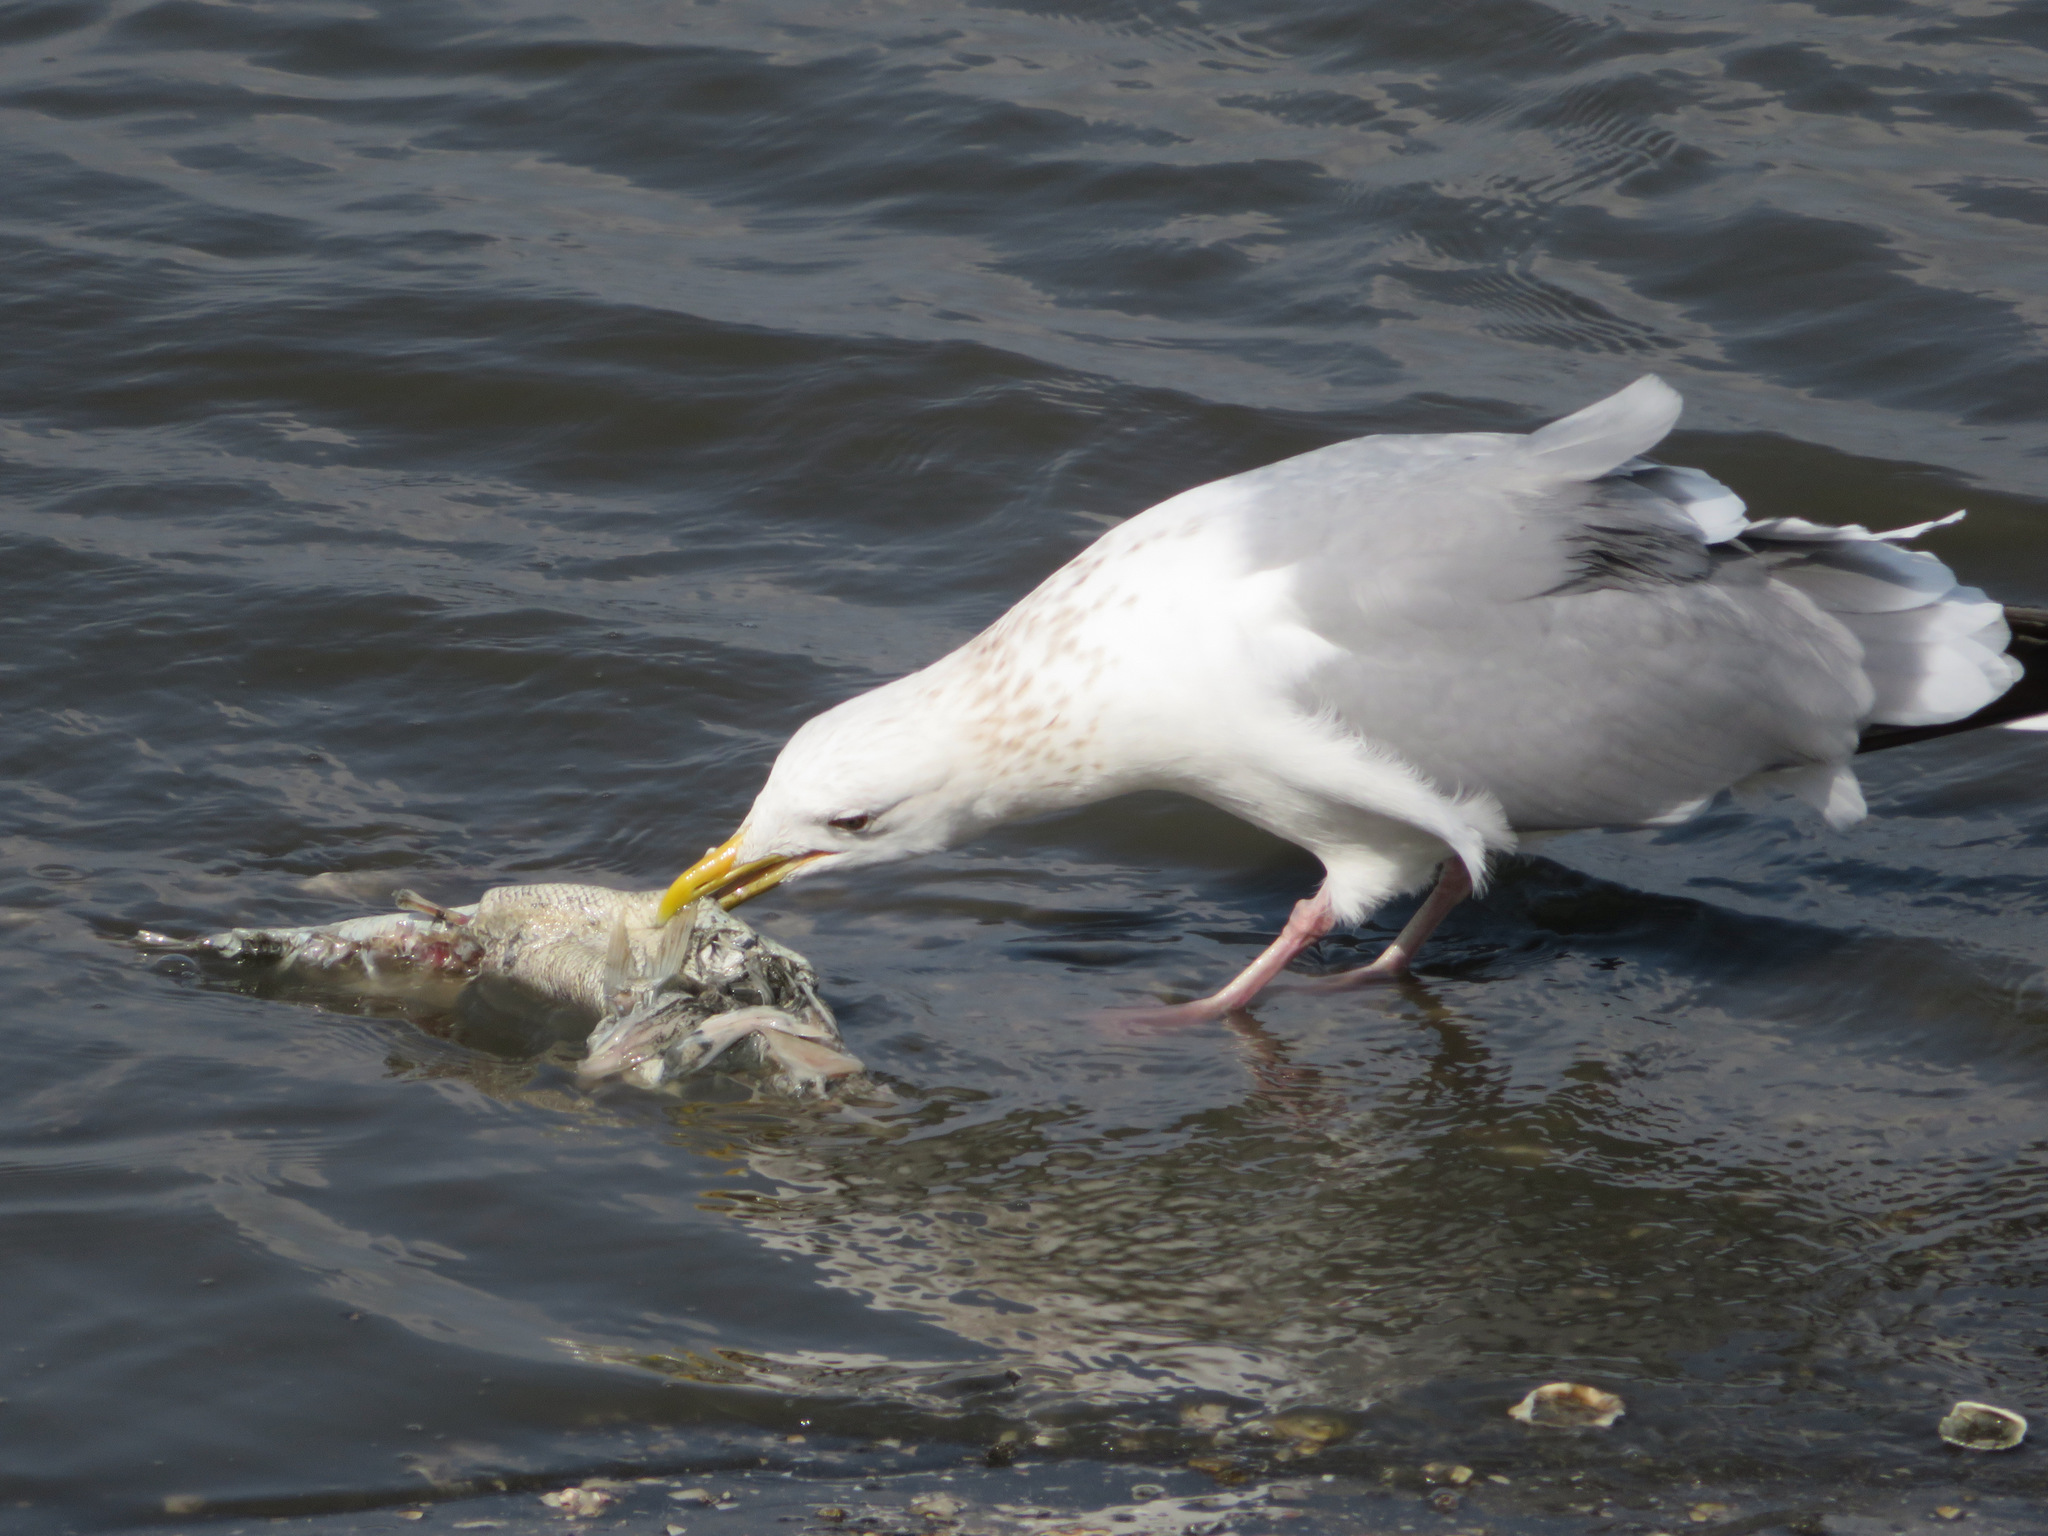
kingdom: Animalia
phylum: Chordata
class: Aves
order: Charadriiformes
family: Laridae
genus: Larus
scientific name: Larus vegae
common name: Vega gull
